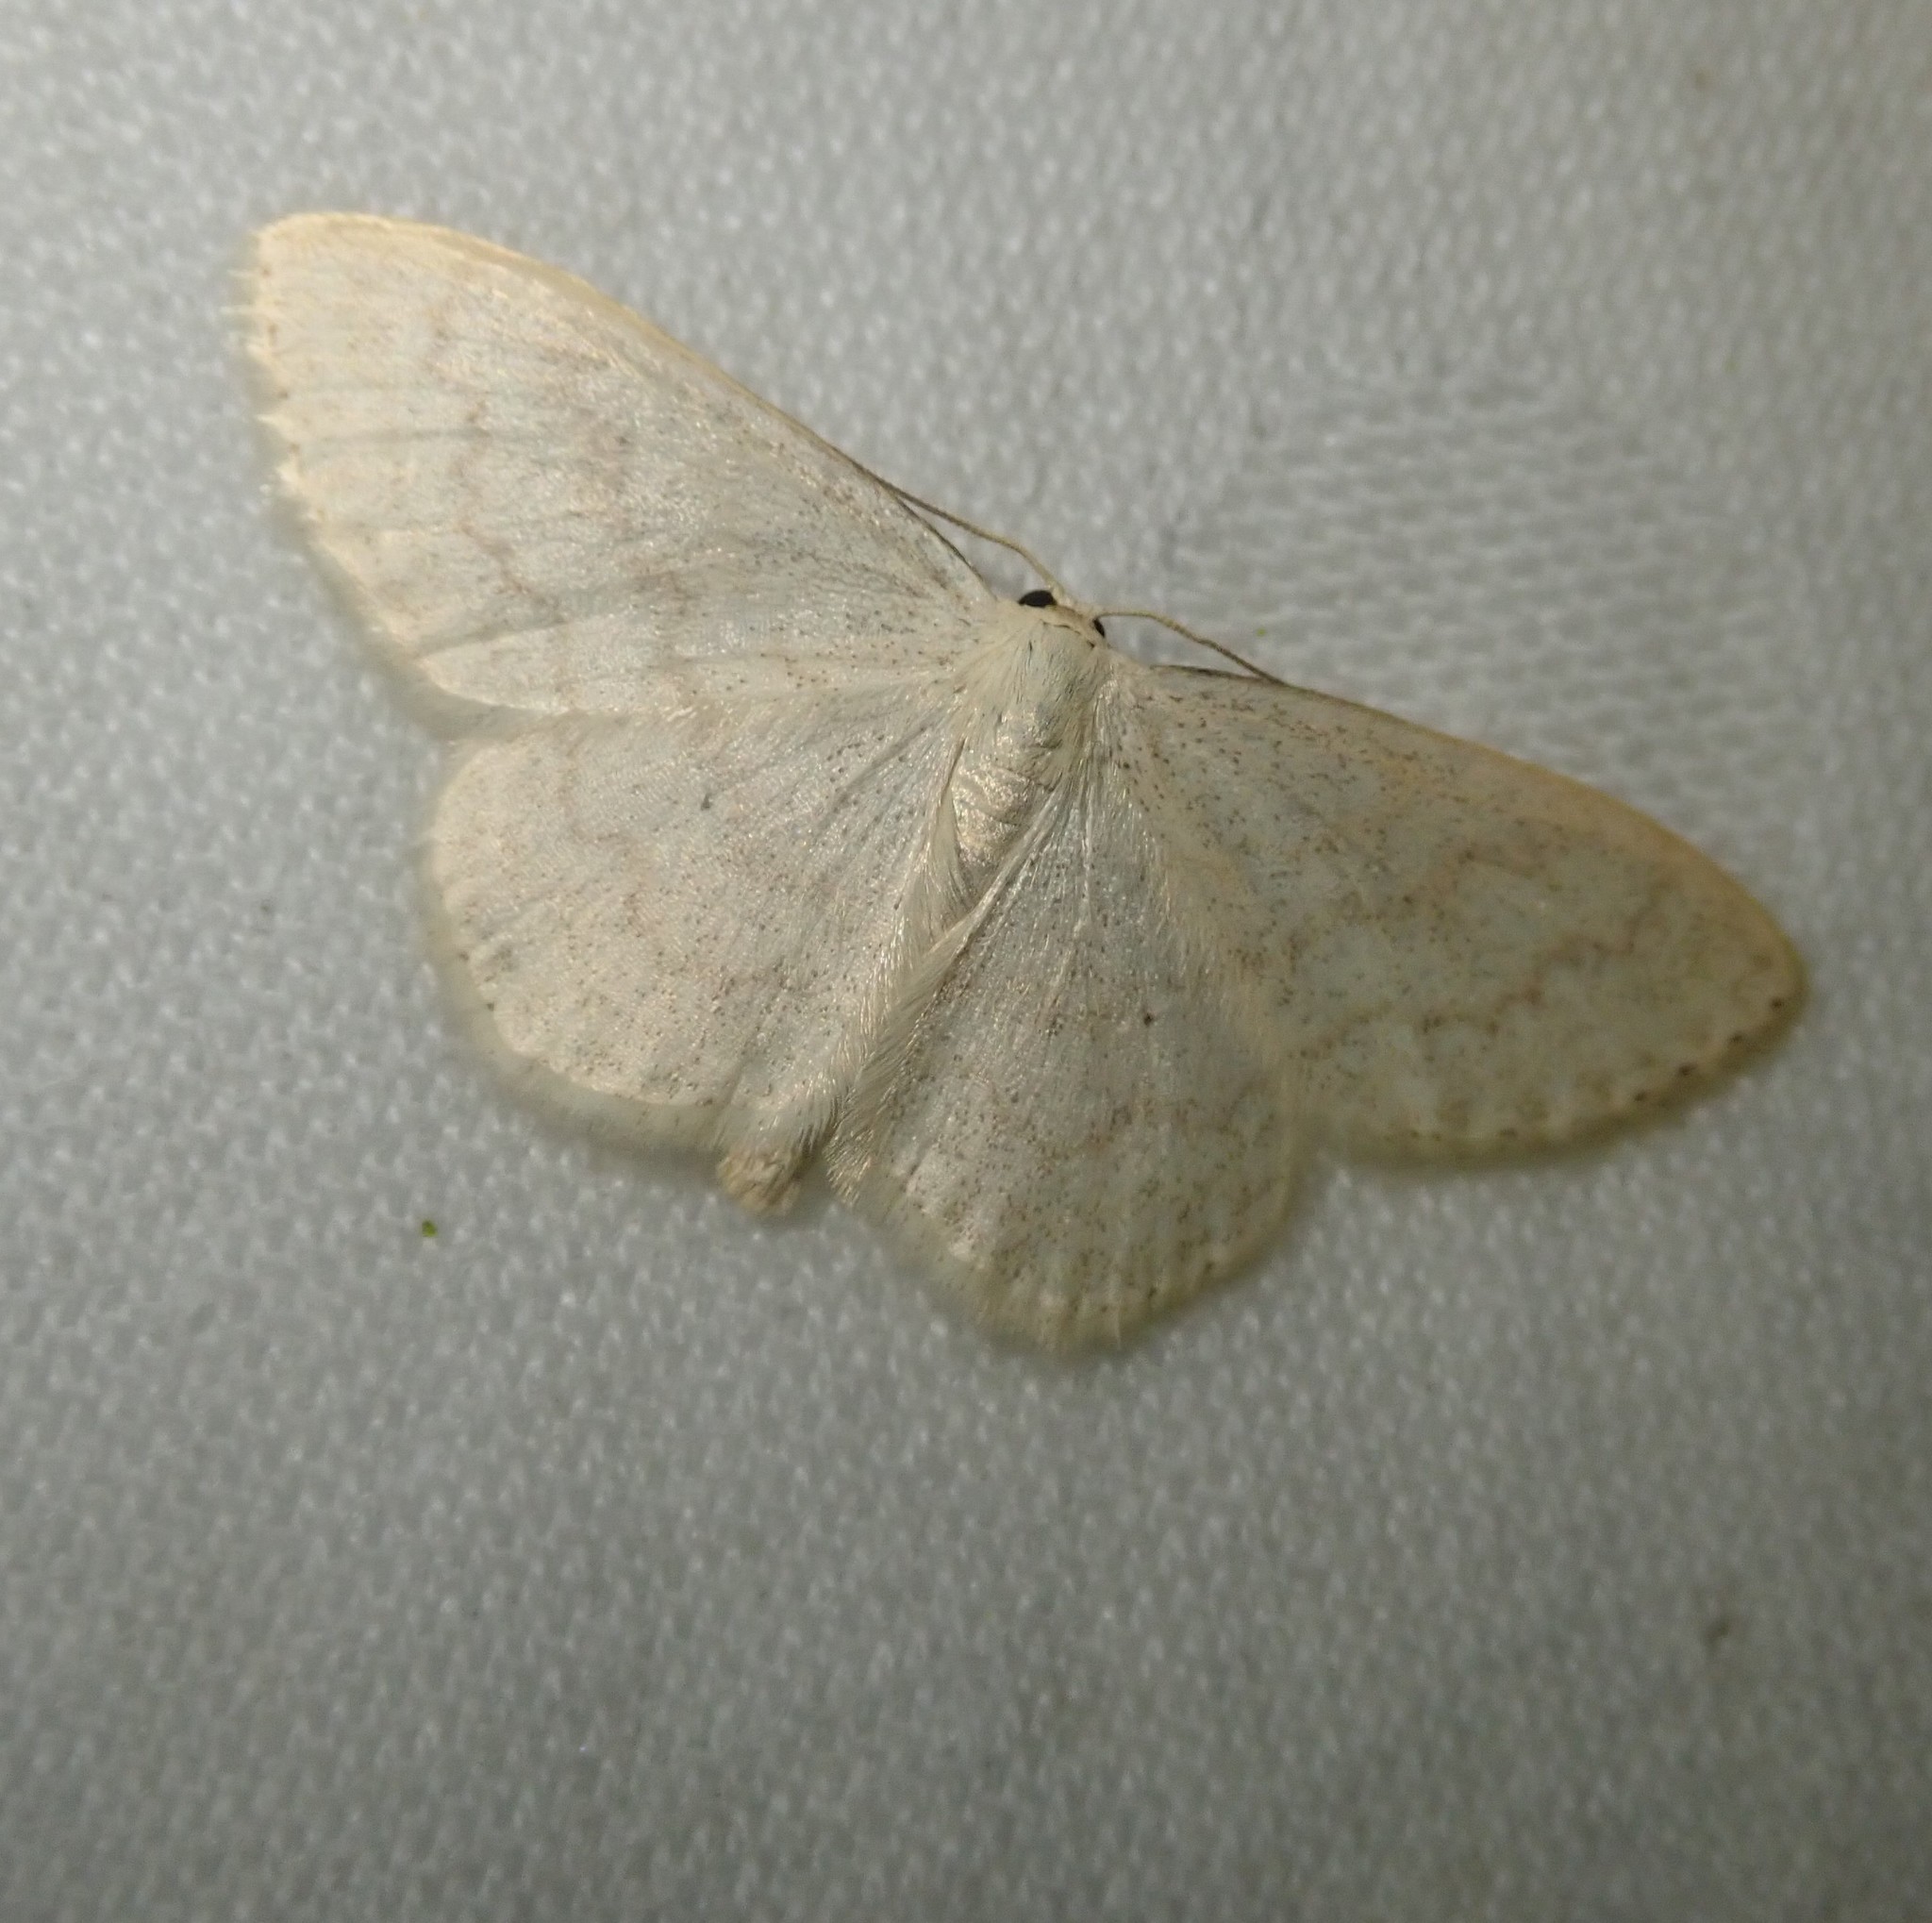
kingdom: Animalia
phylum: Arthropoda
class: Insecta
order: Lepidoptera
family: Geometridae
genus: Scopula
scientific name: Scopula floslactata
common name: Cream wave
